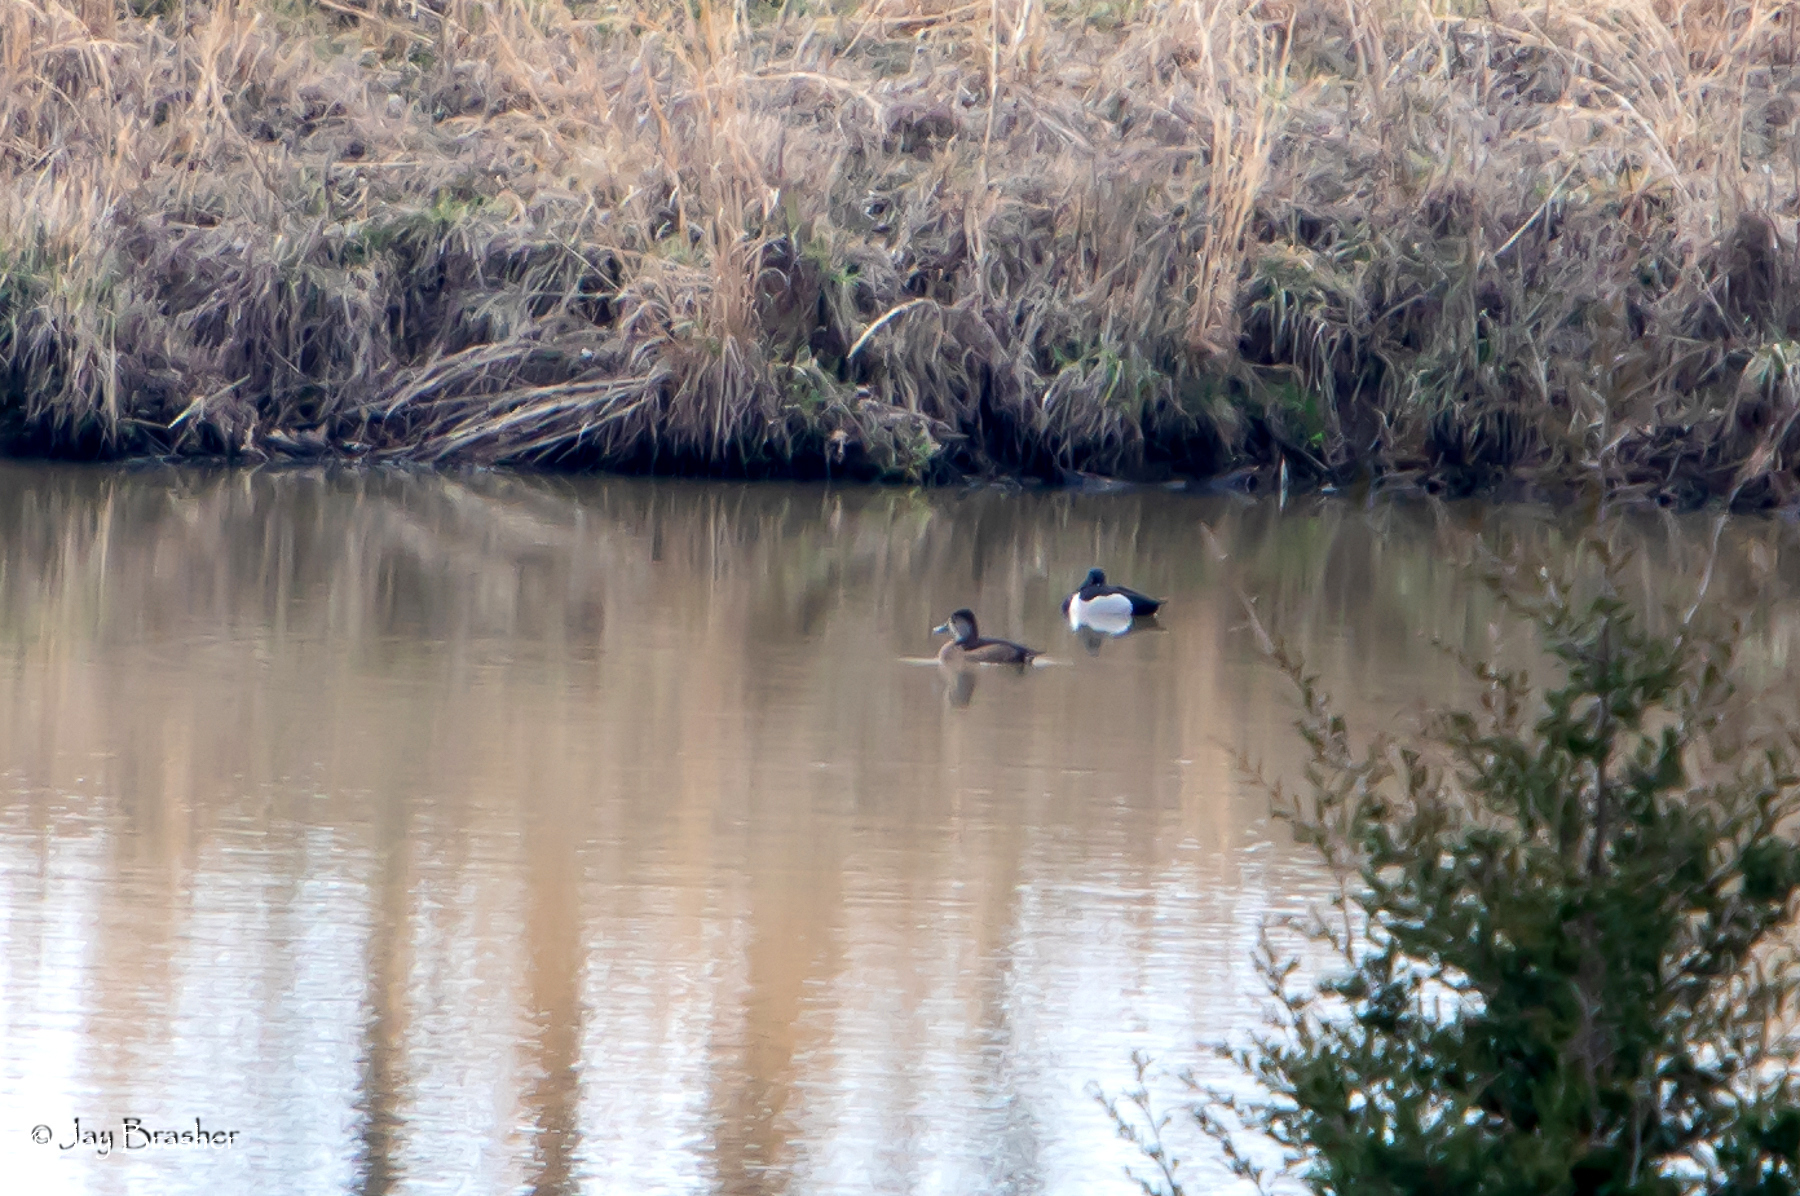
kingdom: Animalia
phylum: Chordata
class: Aves
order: Anseriformes
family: Anatidae
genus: Aythya
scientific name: Aythya collaris
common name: Ring-necked duck
